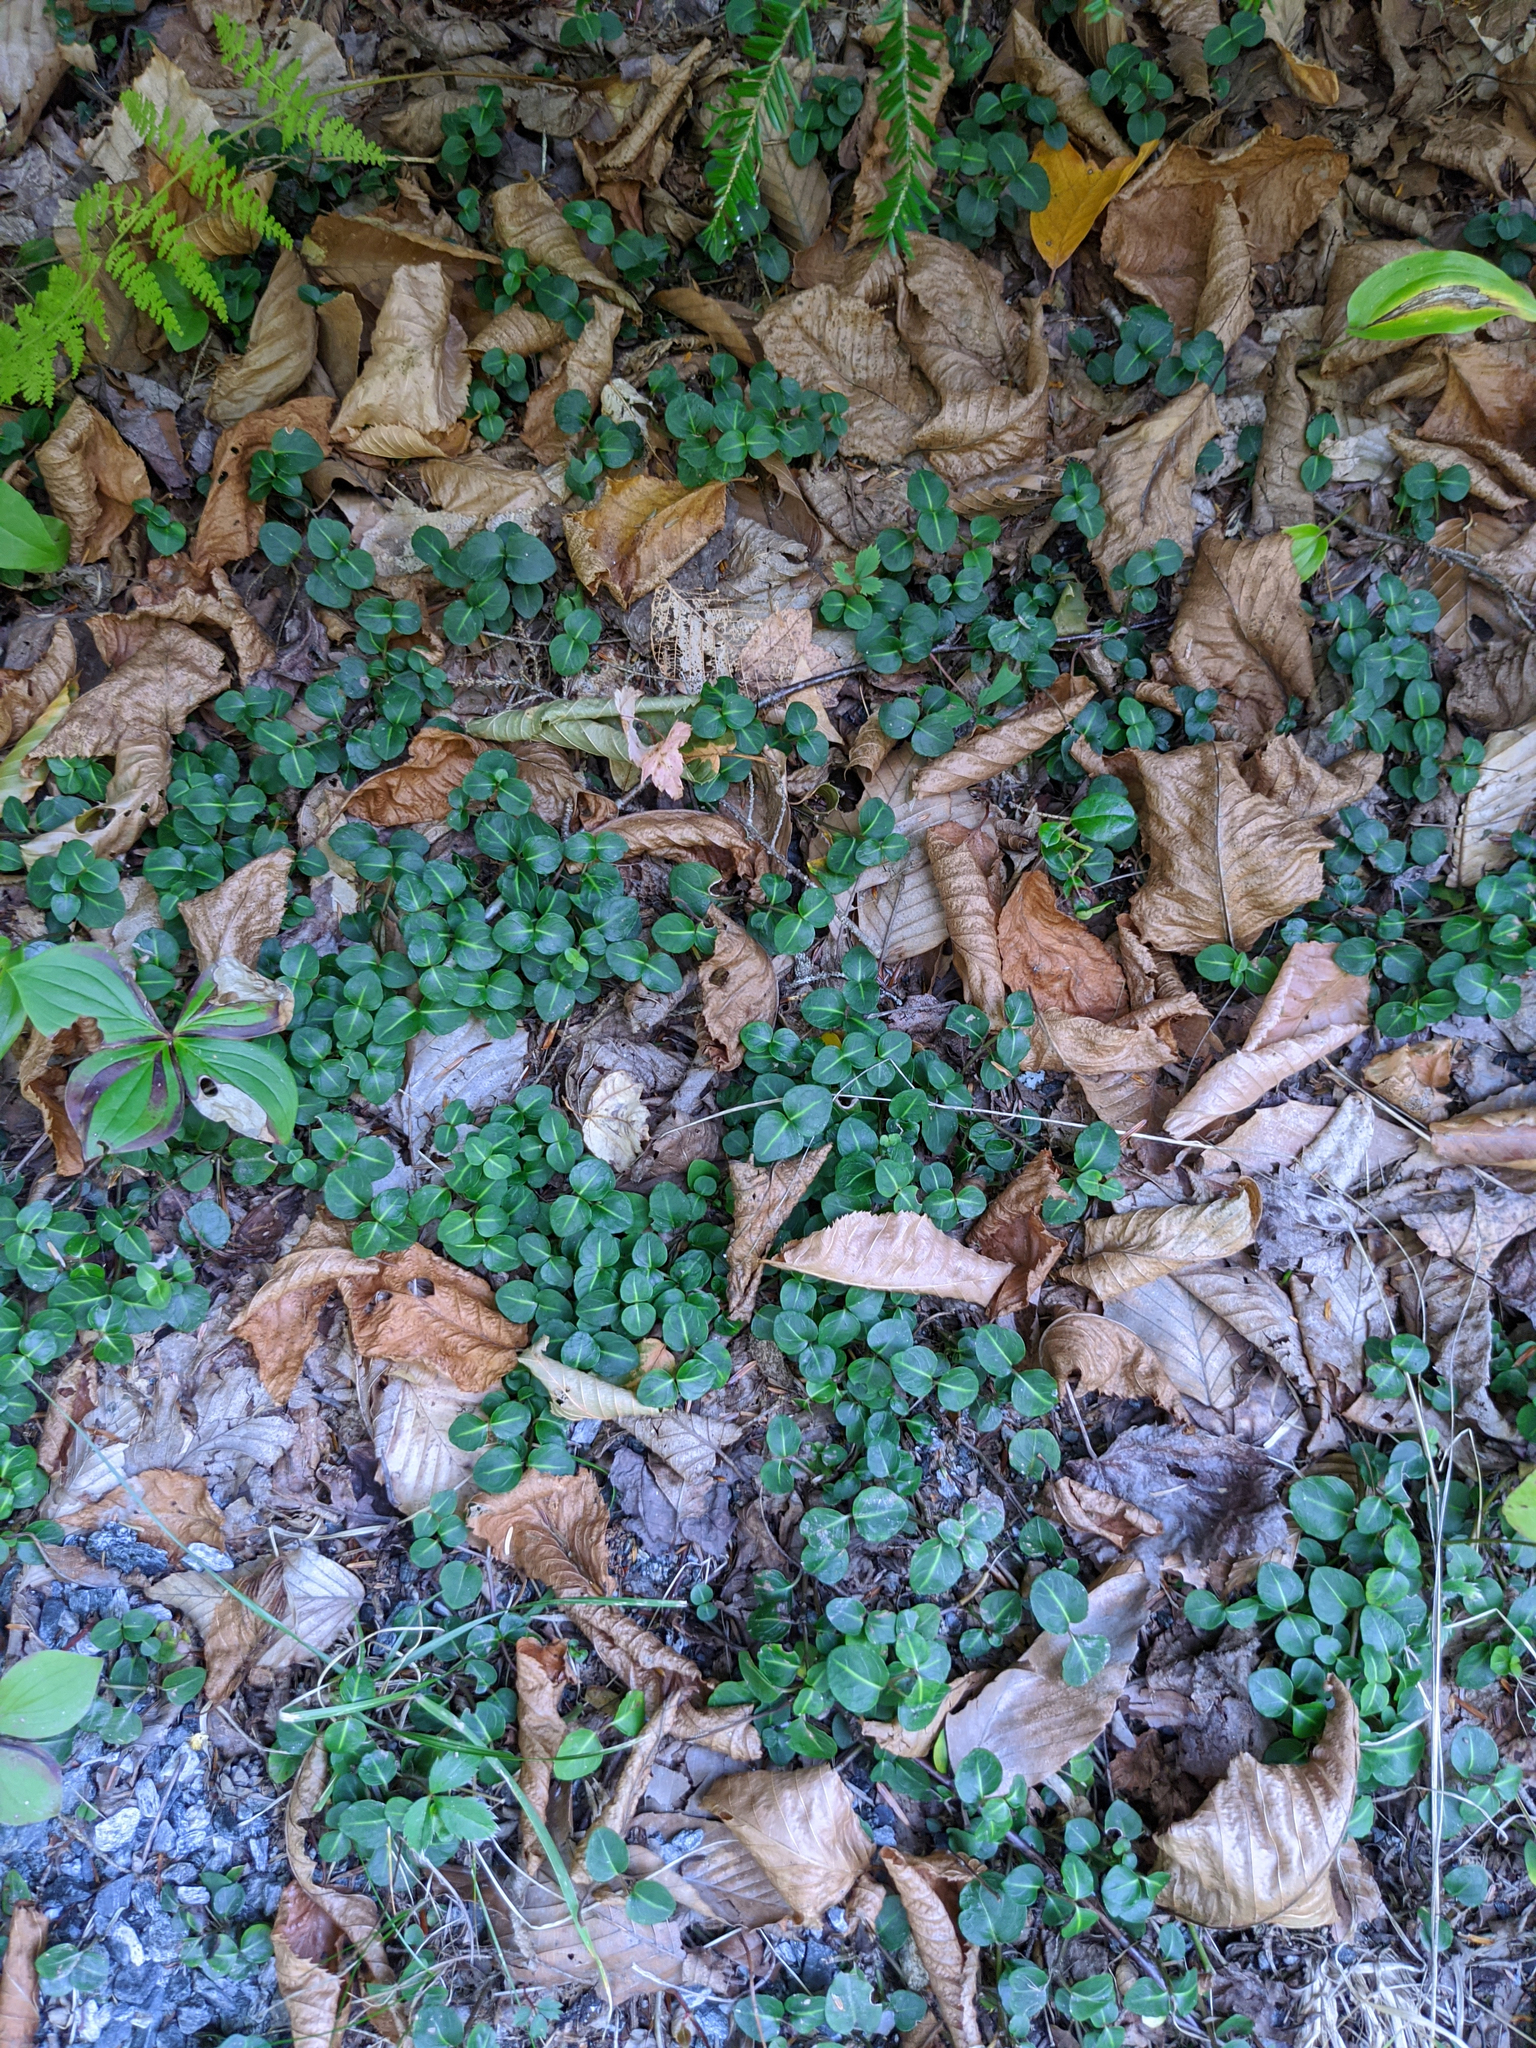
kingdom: Plantae
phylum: Tracheophyta
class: Magnoliopsida
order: Gentianales
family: Rubiaceae
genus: Mitchella
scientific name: Mitchella repens
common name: Partridge-berry
